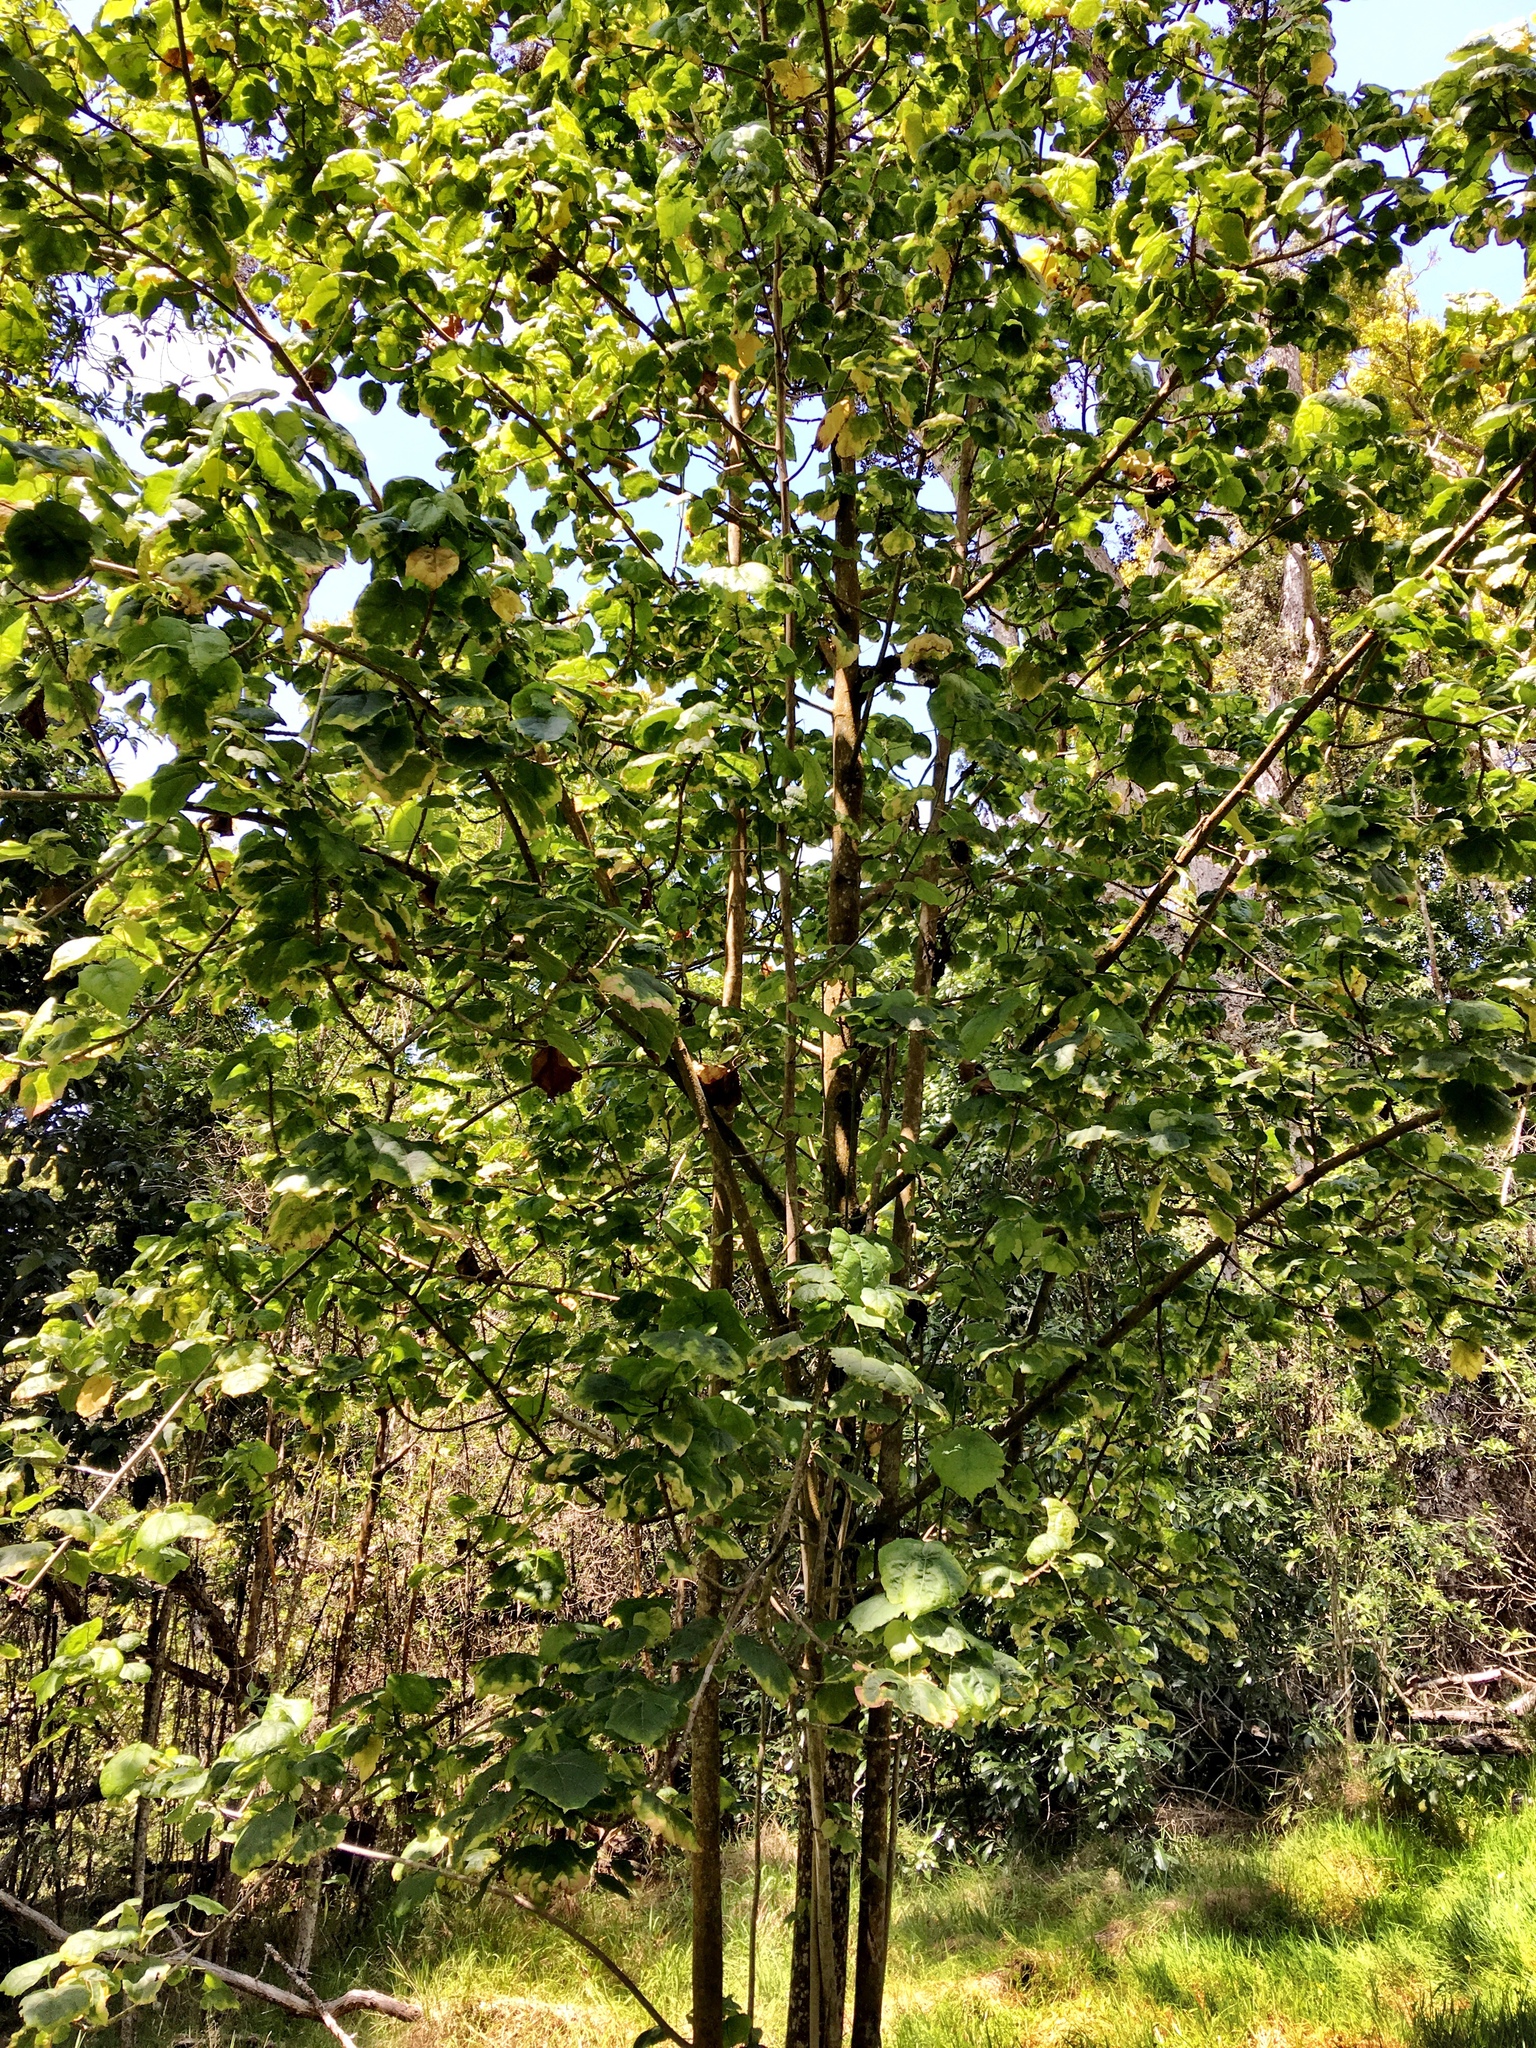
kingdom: Plantae
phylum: Tracheophyta
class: Magnoliopsida
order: Malvales
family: Malvaceae
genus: Hibiscadelphus
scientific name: Hibiscadelphus giffardianus
